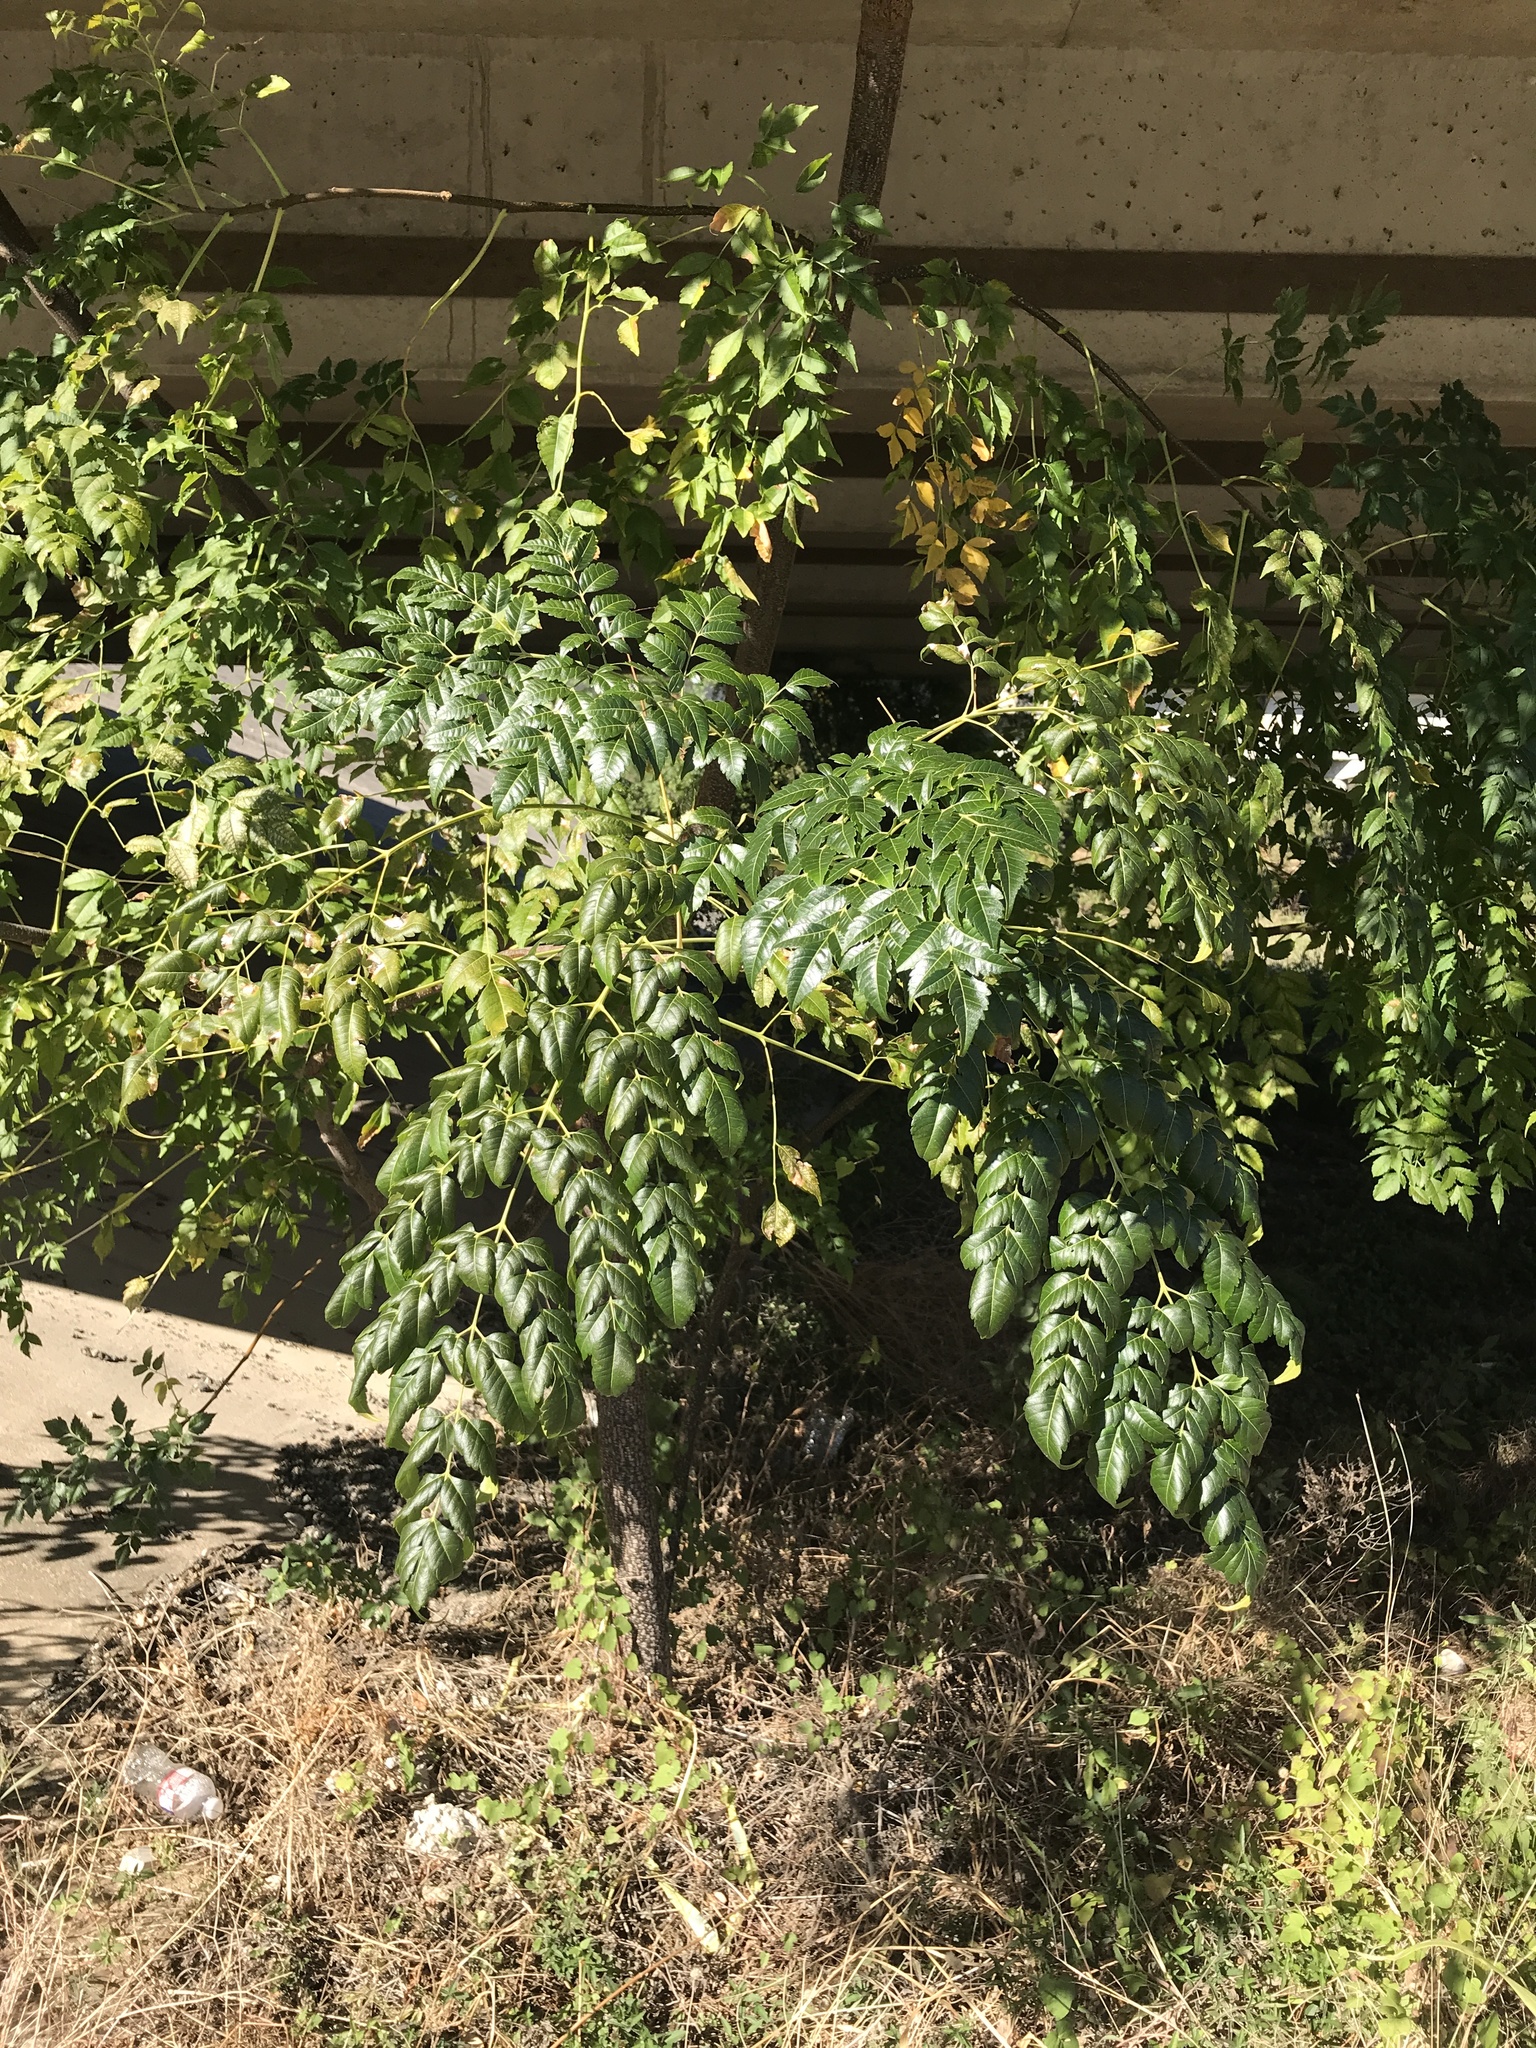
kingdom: Plantae
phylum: Tracheophyta
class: Magnoliopsida
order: Sapindales
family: Meliaceae
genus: Melia
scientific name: Melia azedarach
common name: Chinaberrytree
